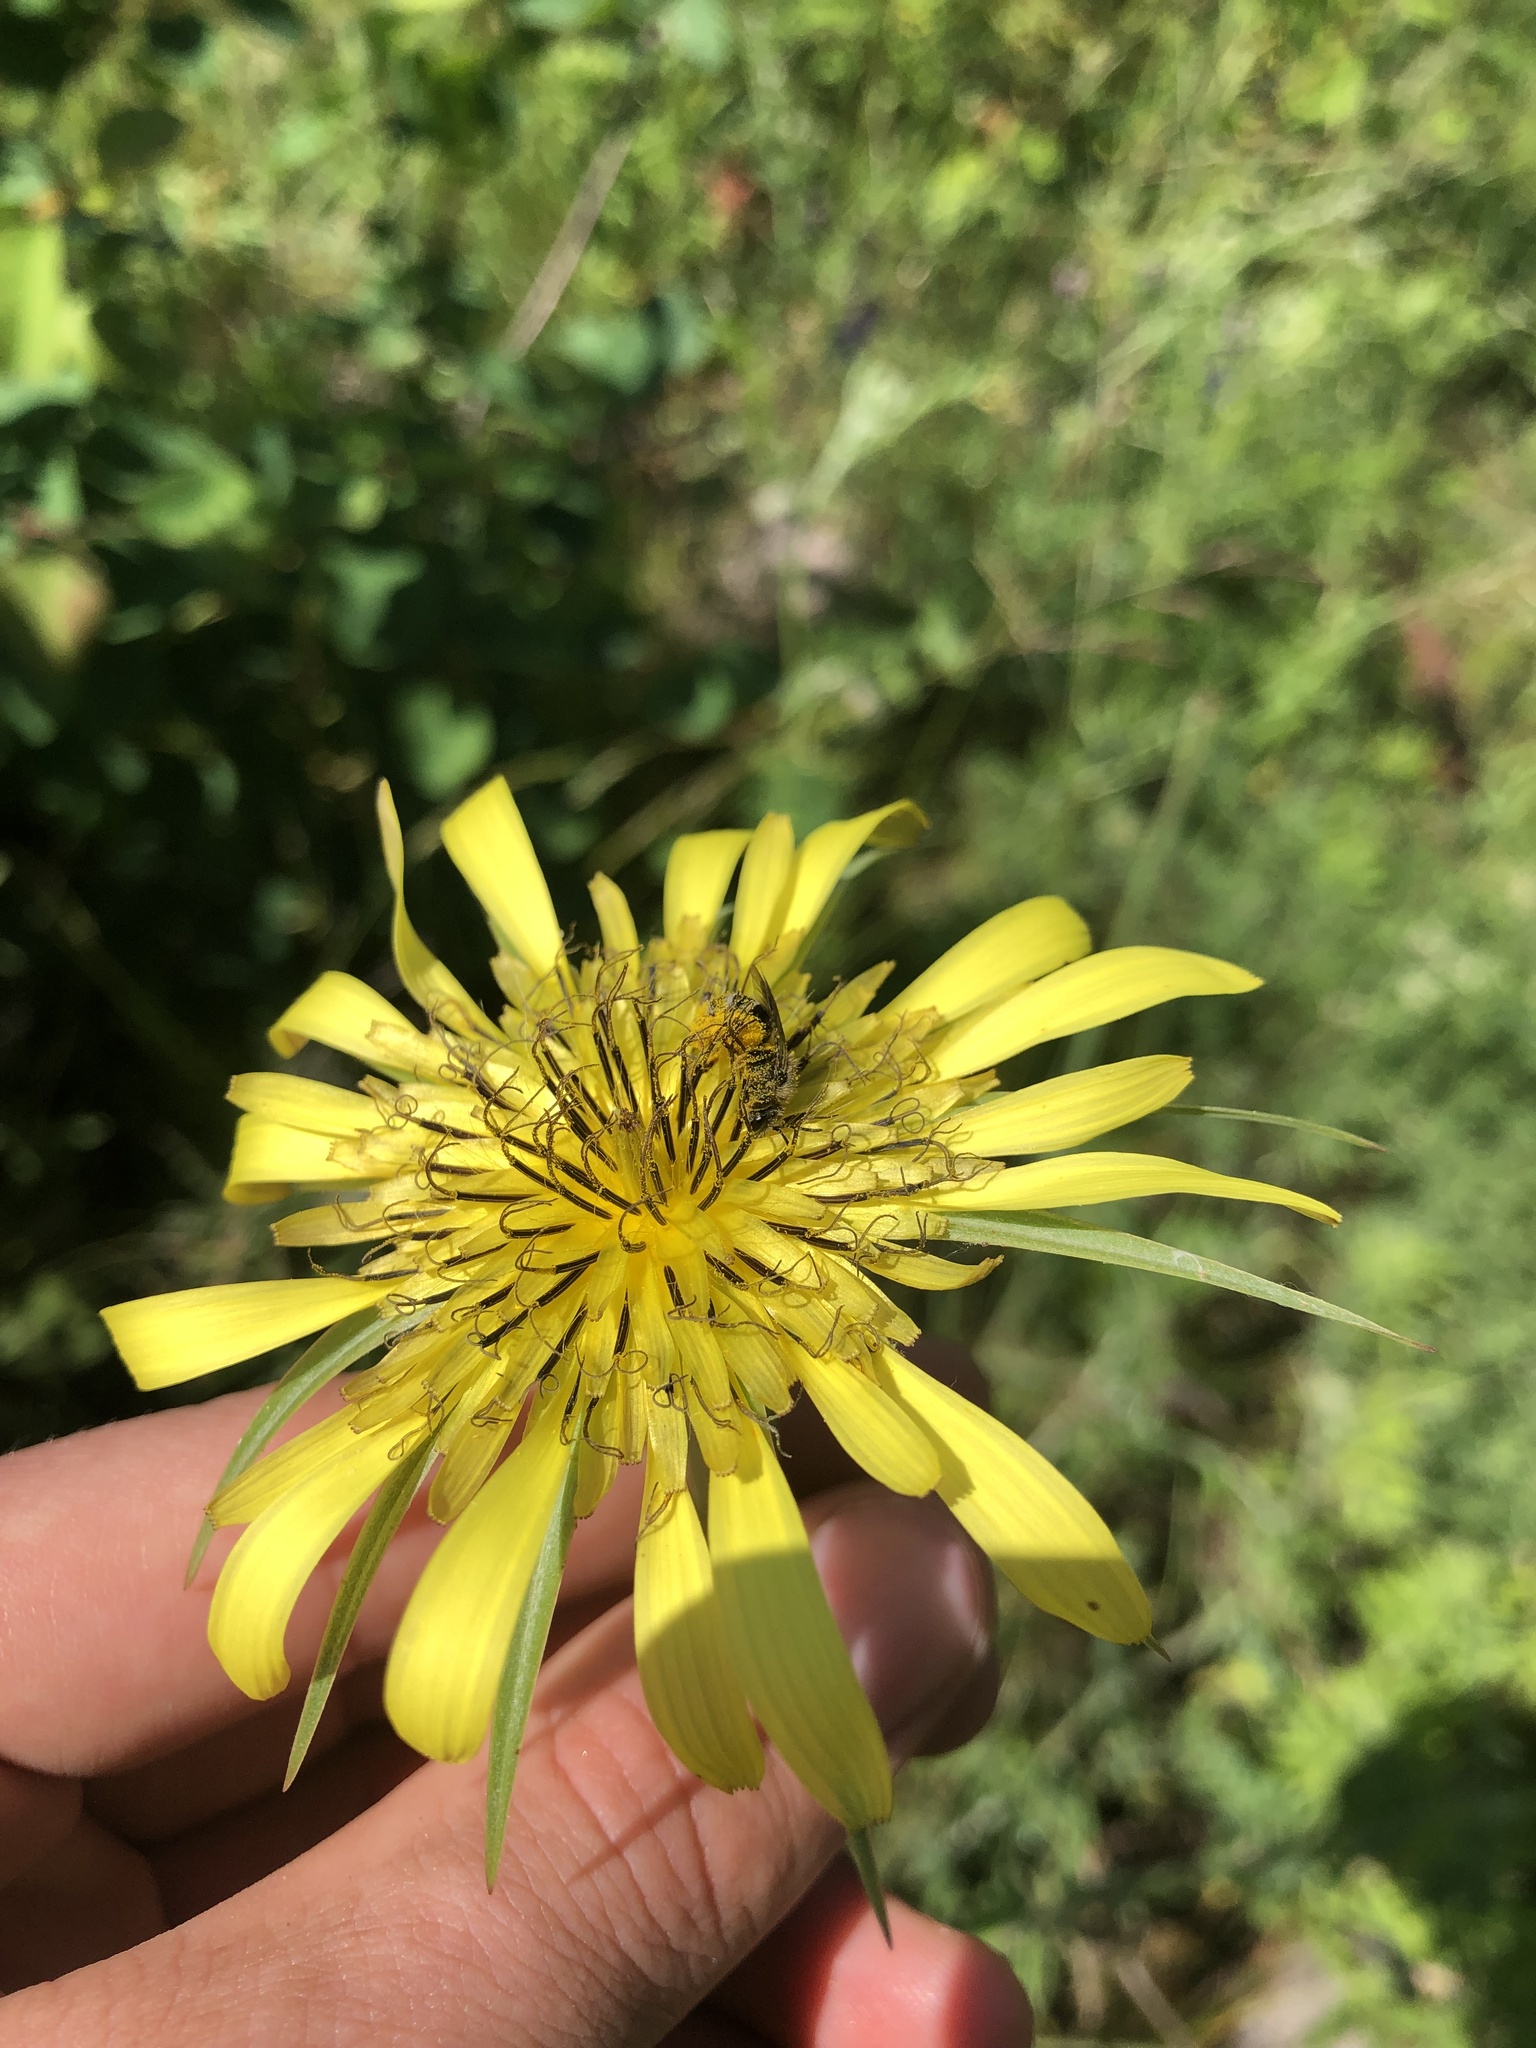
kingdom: Plantae
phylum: Tracheophyta
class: Magnoliopsida
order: Asterales
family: Asteraceae
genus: Tragopogon
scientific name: Tragopogon dubius
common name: Yellow salsify
